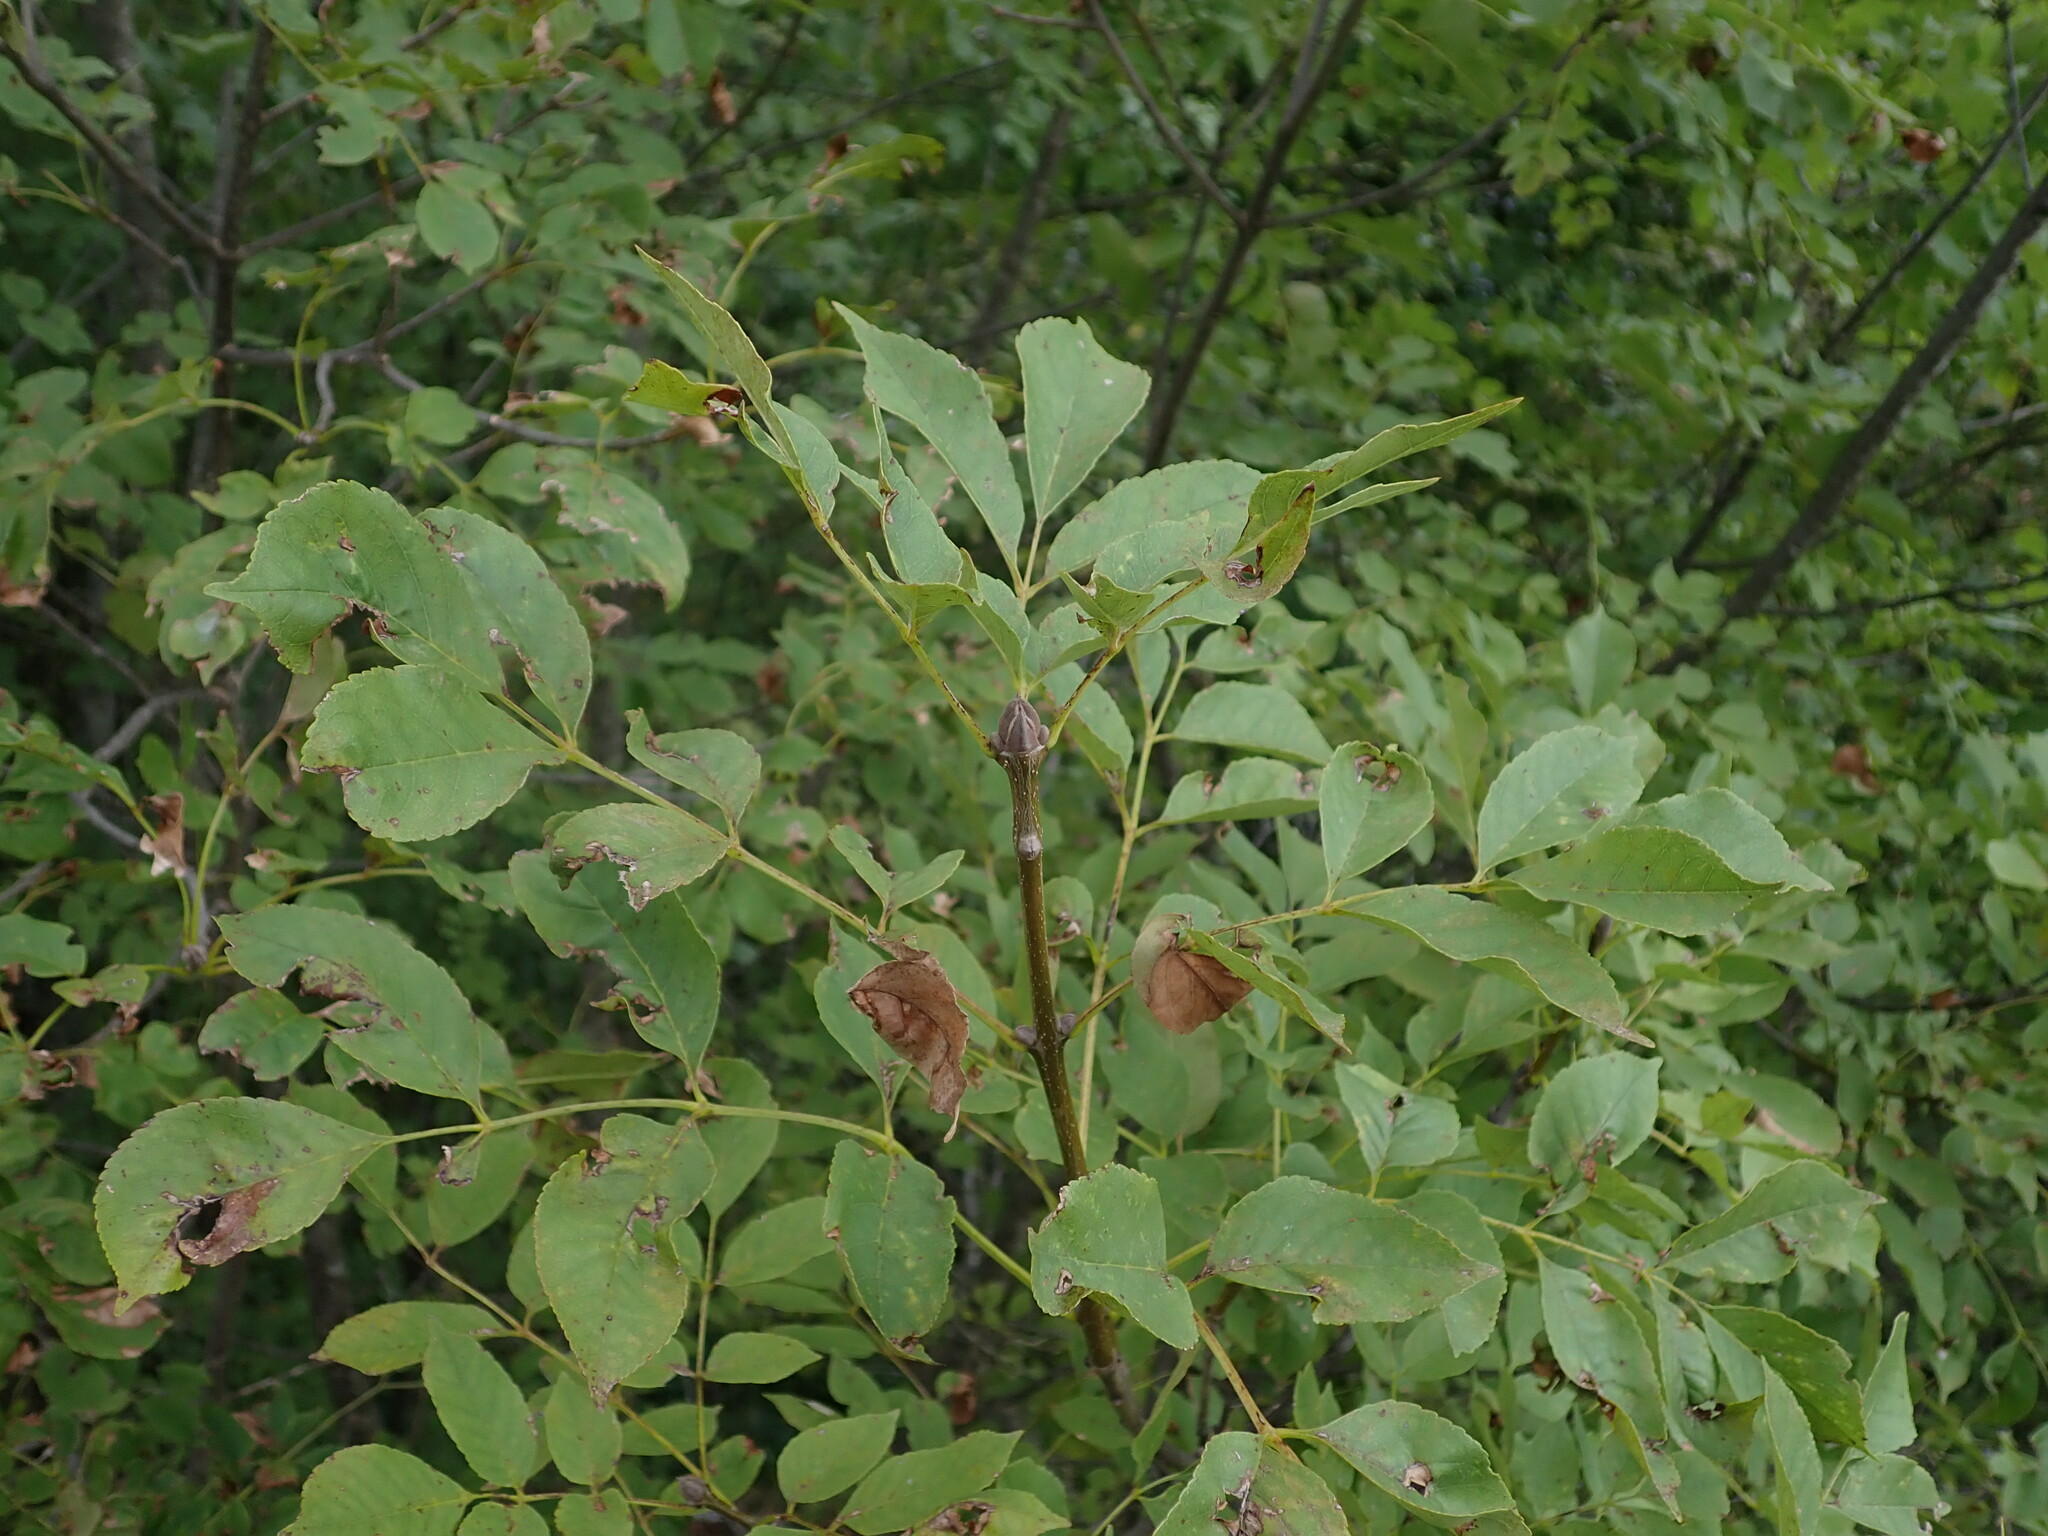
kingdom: Plantae
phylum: Tracheophyta
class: Magnoliopsida
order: Lamiales
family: Oleaceae
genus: Fraxinus
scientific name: Fraxinus ornus
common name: Manna ash
